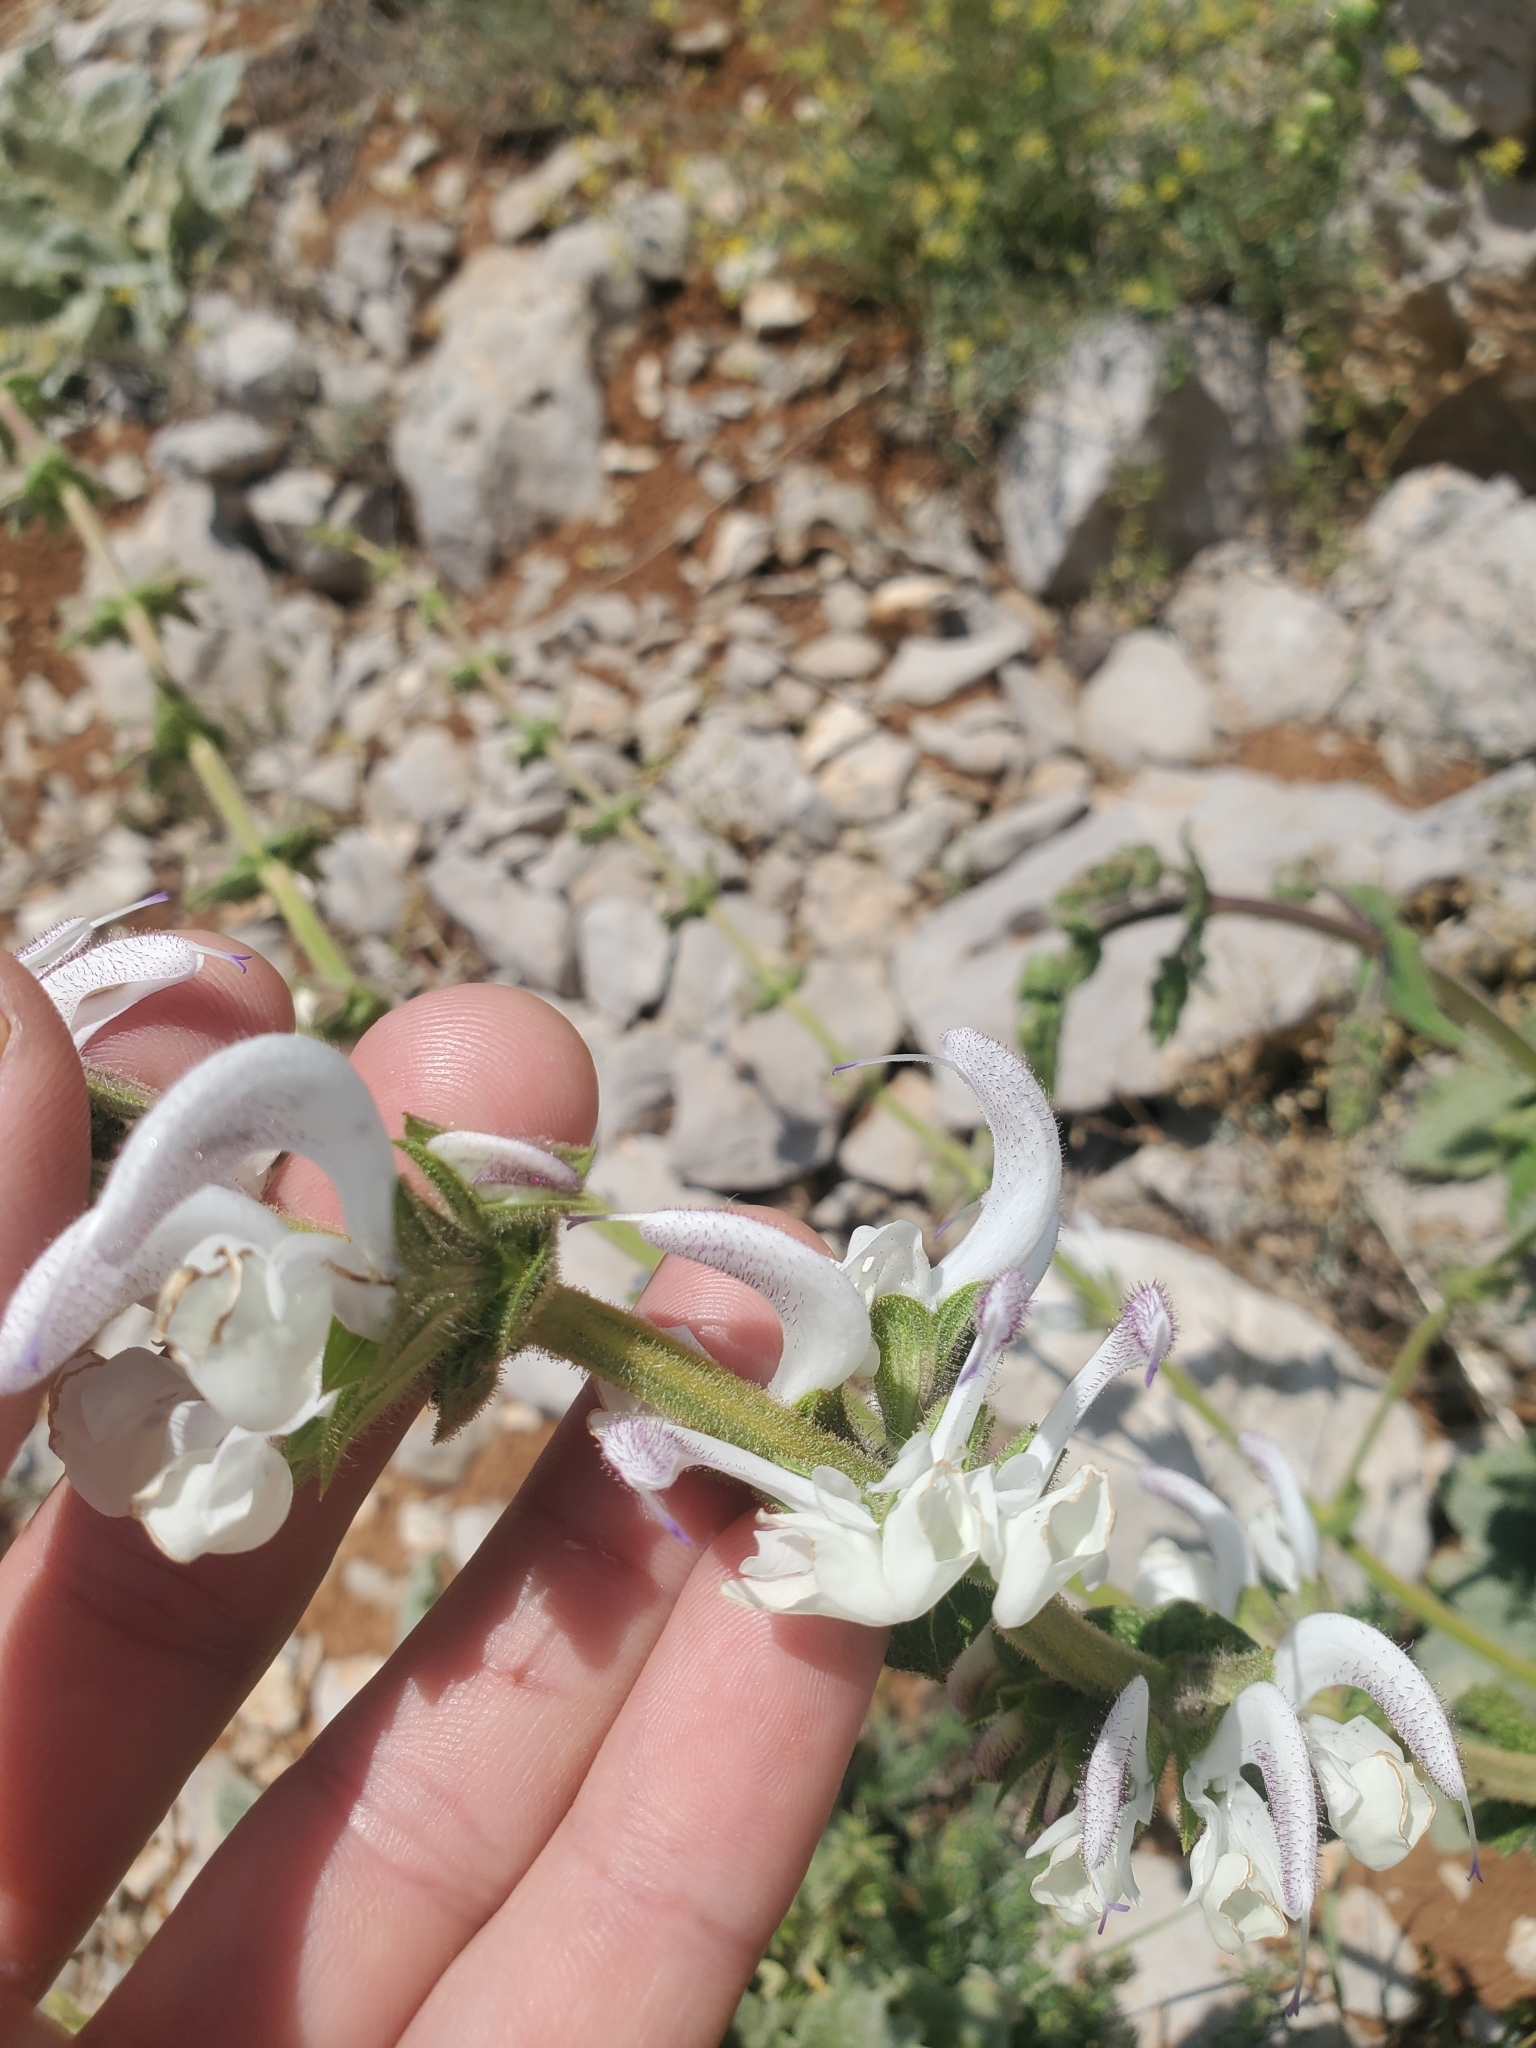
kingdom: Plantae
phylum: Tracheophyta
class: Magnoliopsida
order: Lamiales
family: Lamiaceae
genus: Salvia
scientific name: Salvia microstegia
